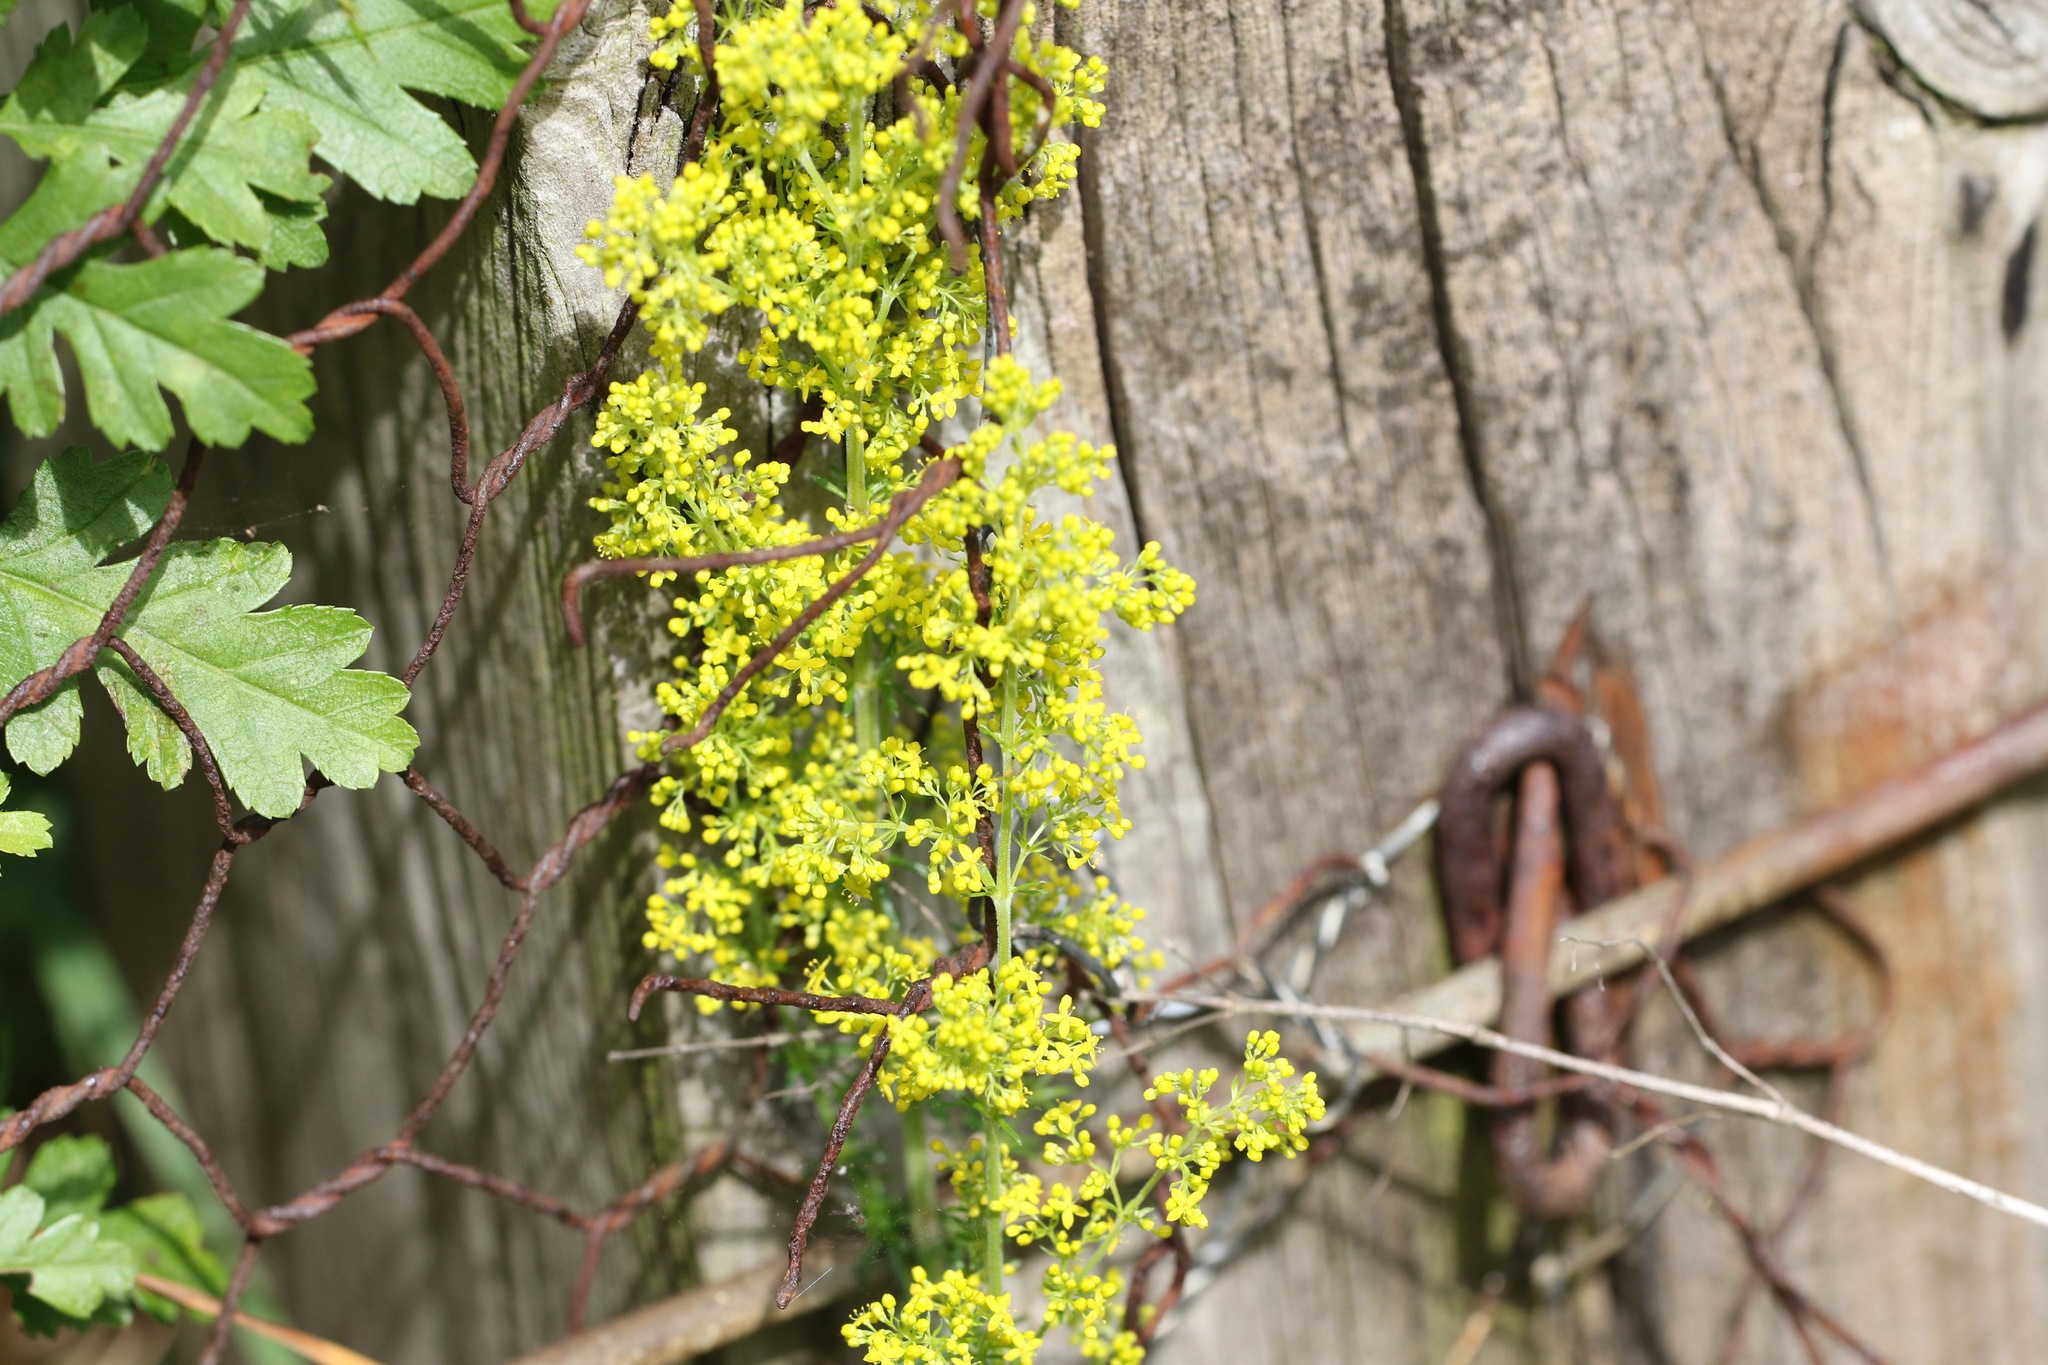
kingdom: Plantae
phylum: Tracheophyta
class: Magnoliopsida
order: Gentianales
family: Rubiaceae
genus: Galium
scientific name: Galium verum
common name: Lady's bedstraw
